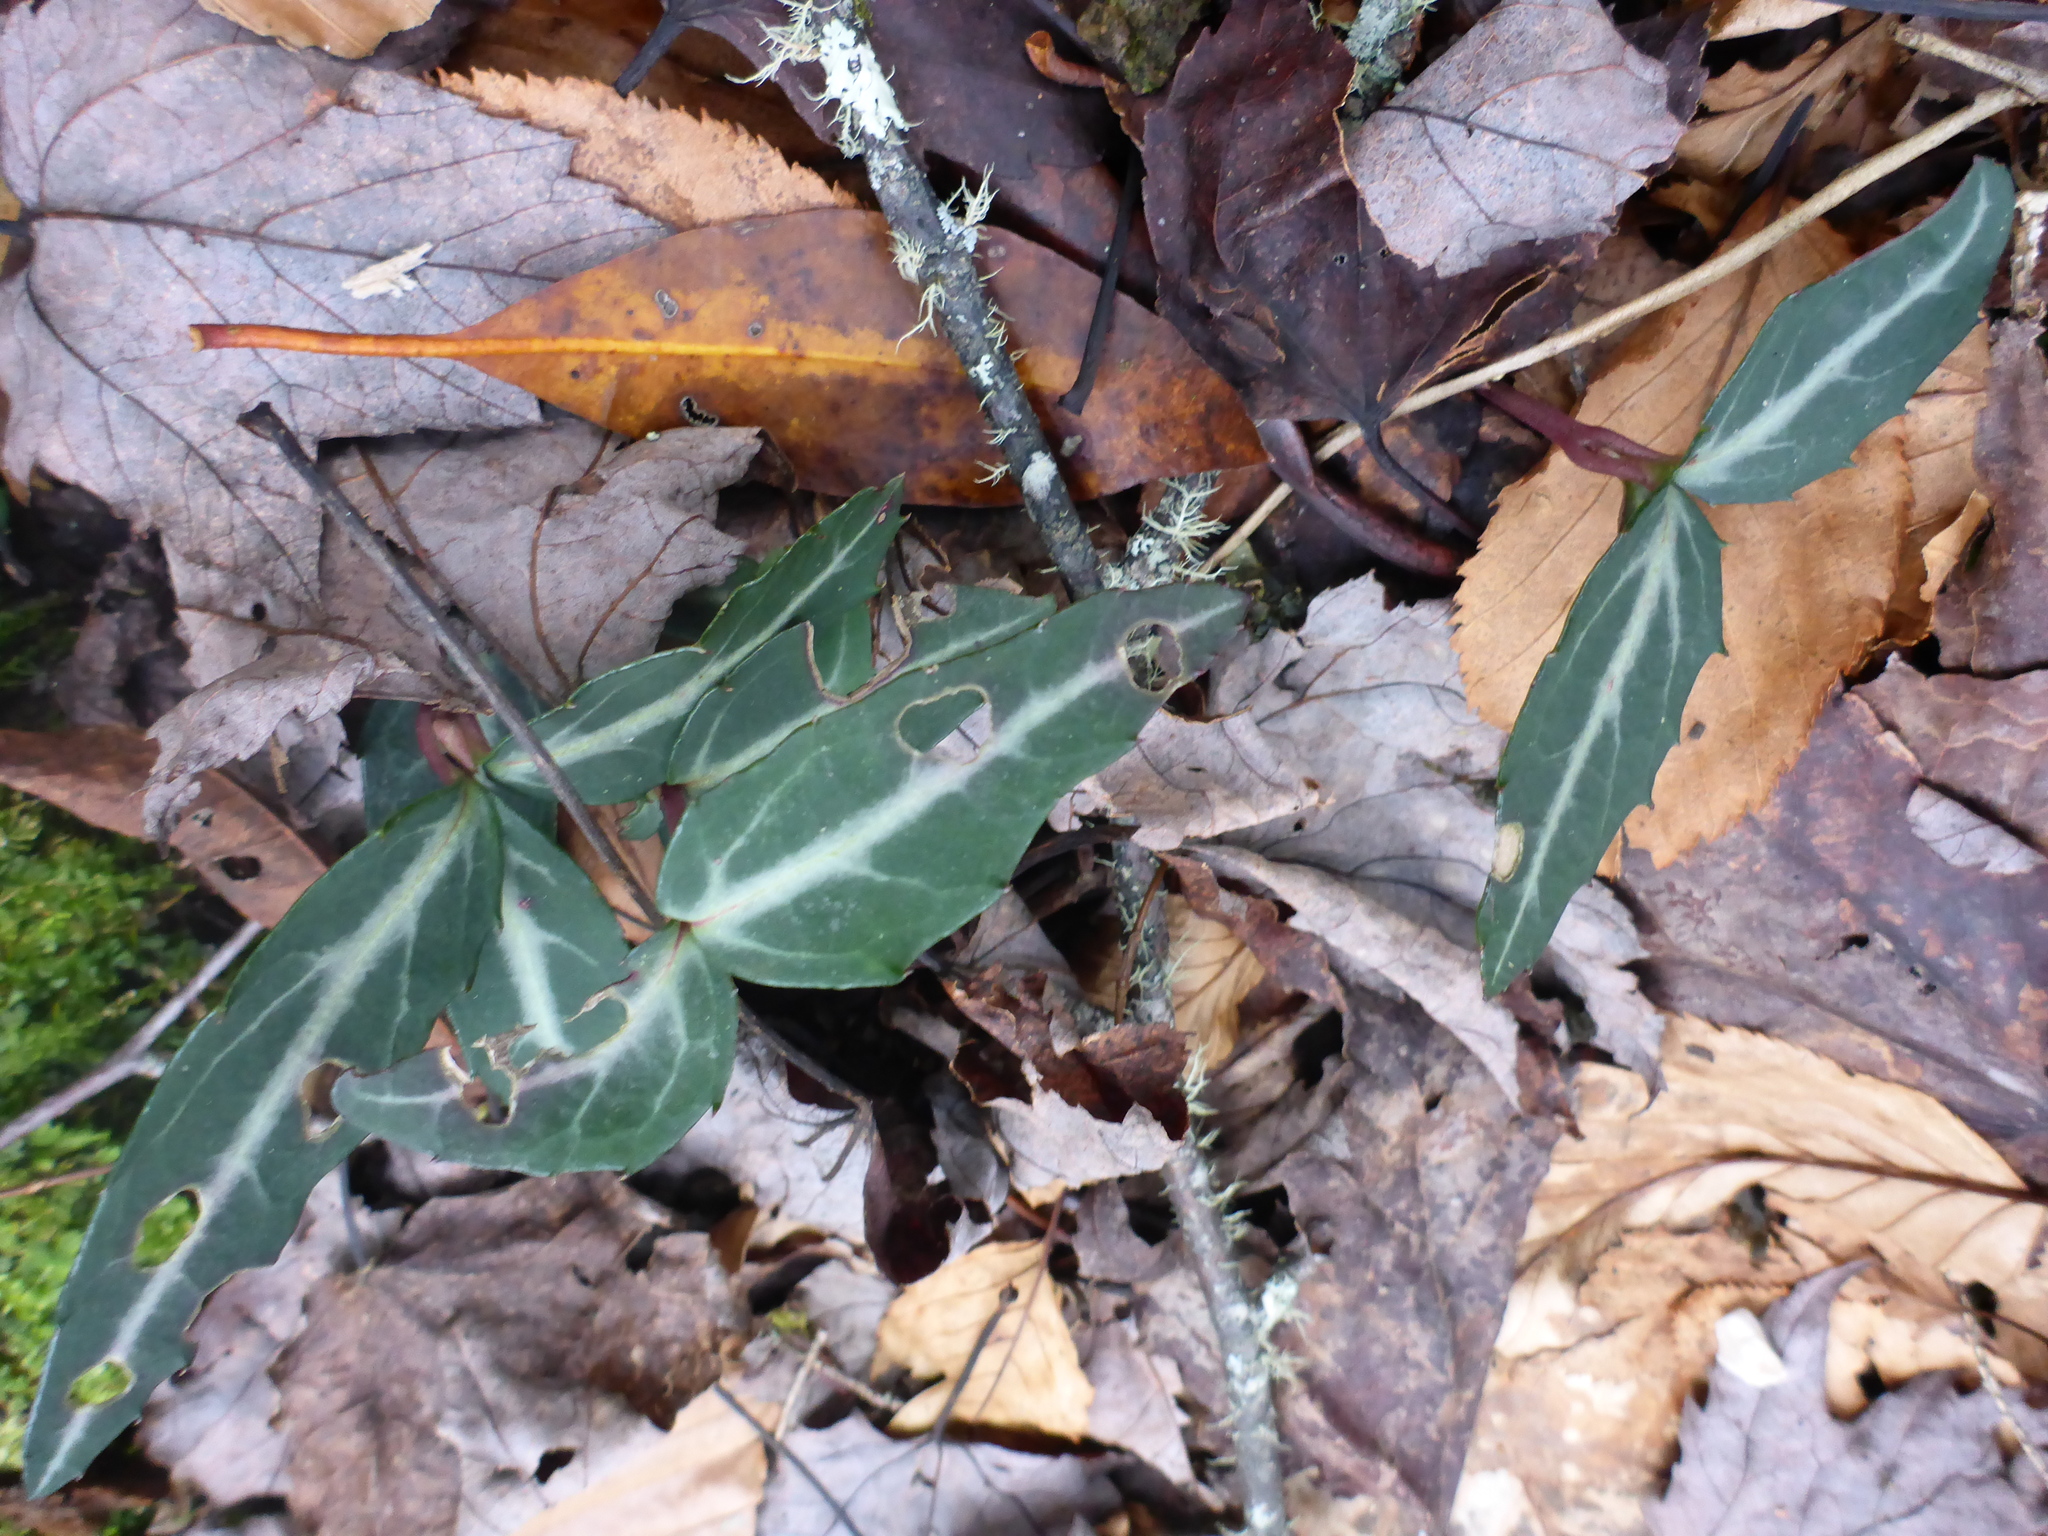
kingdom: Plantae
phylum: Tracheophyta
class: Magnoliopsida
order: Ericales
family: Ericaceae
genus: Chimaphila
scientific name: Chimaphila maculata
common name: Spotted pipsissewa
